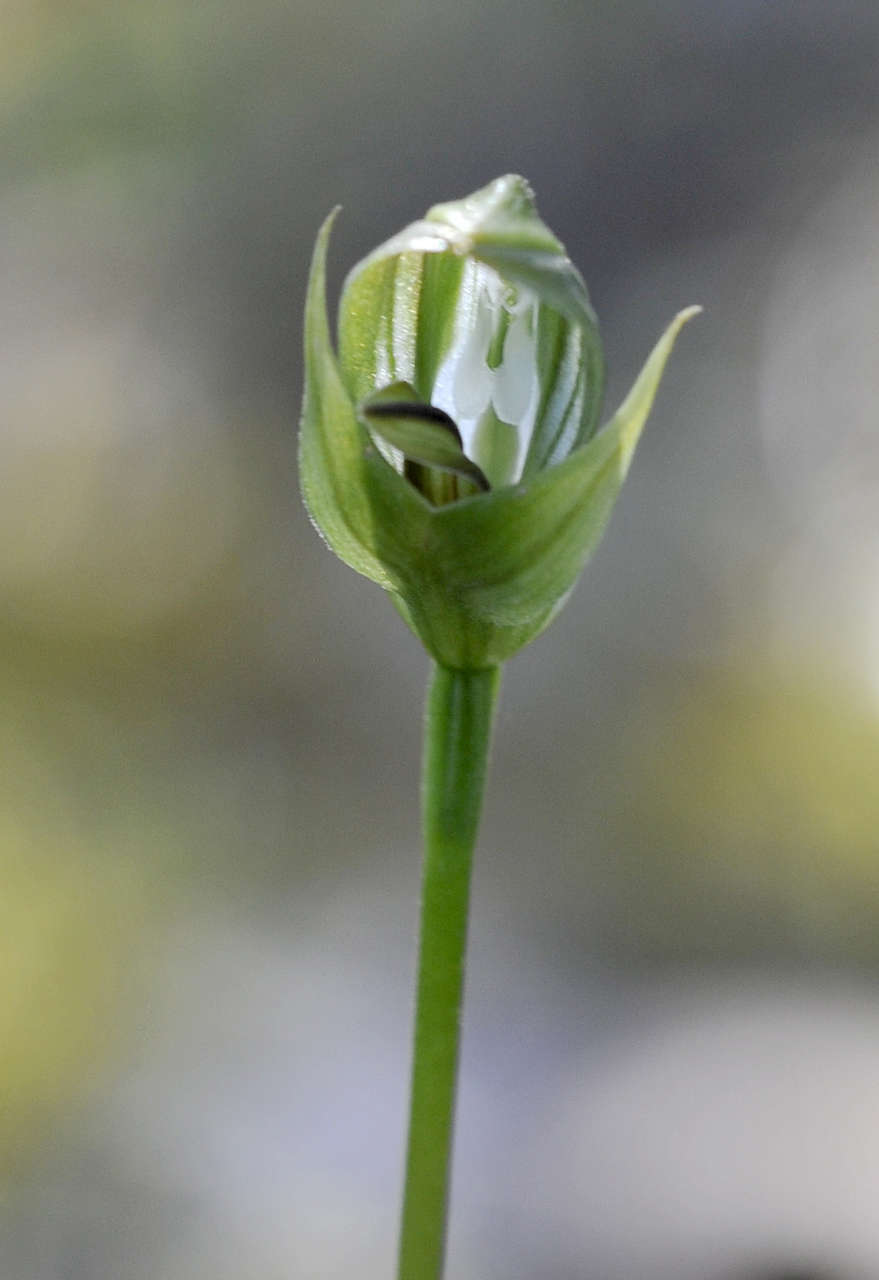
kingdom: Plantae
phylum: Tracheophyta
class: Liliopsida
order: Asparagales
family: Orchidaceae
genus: Pterostylis
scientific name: Pterostylis curta
